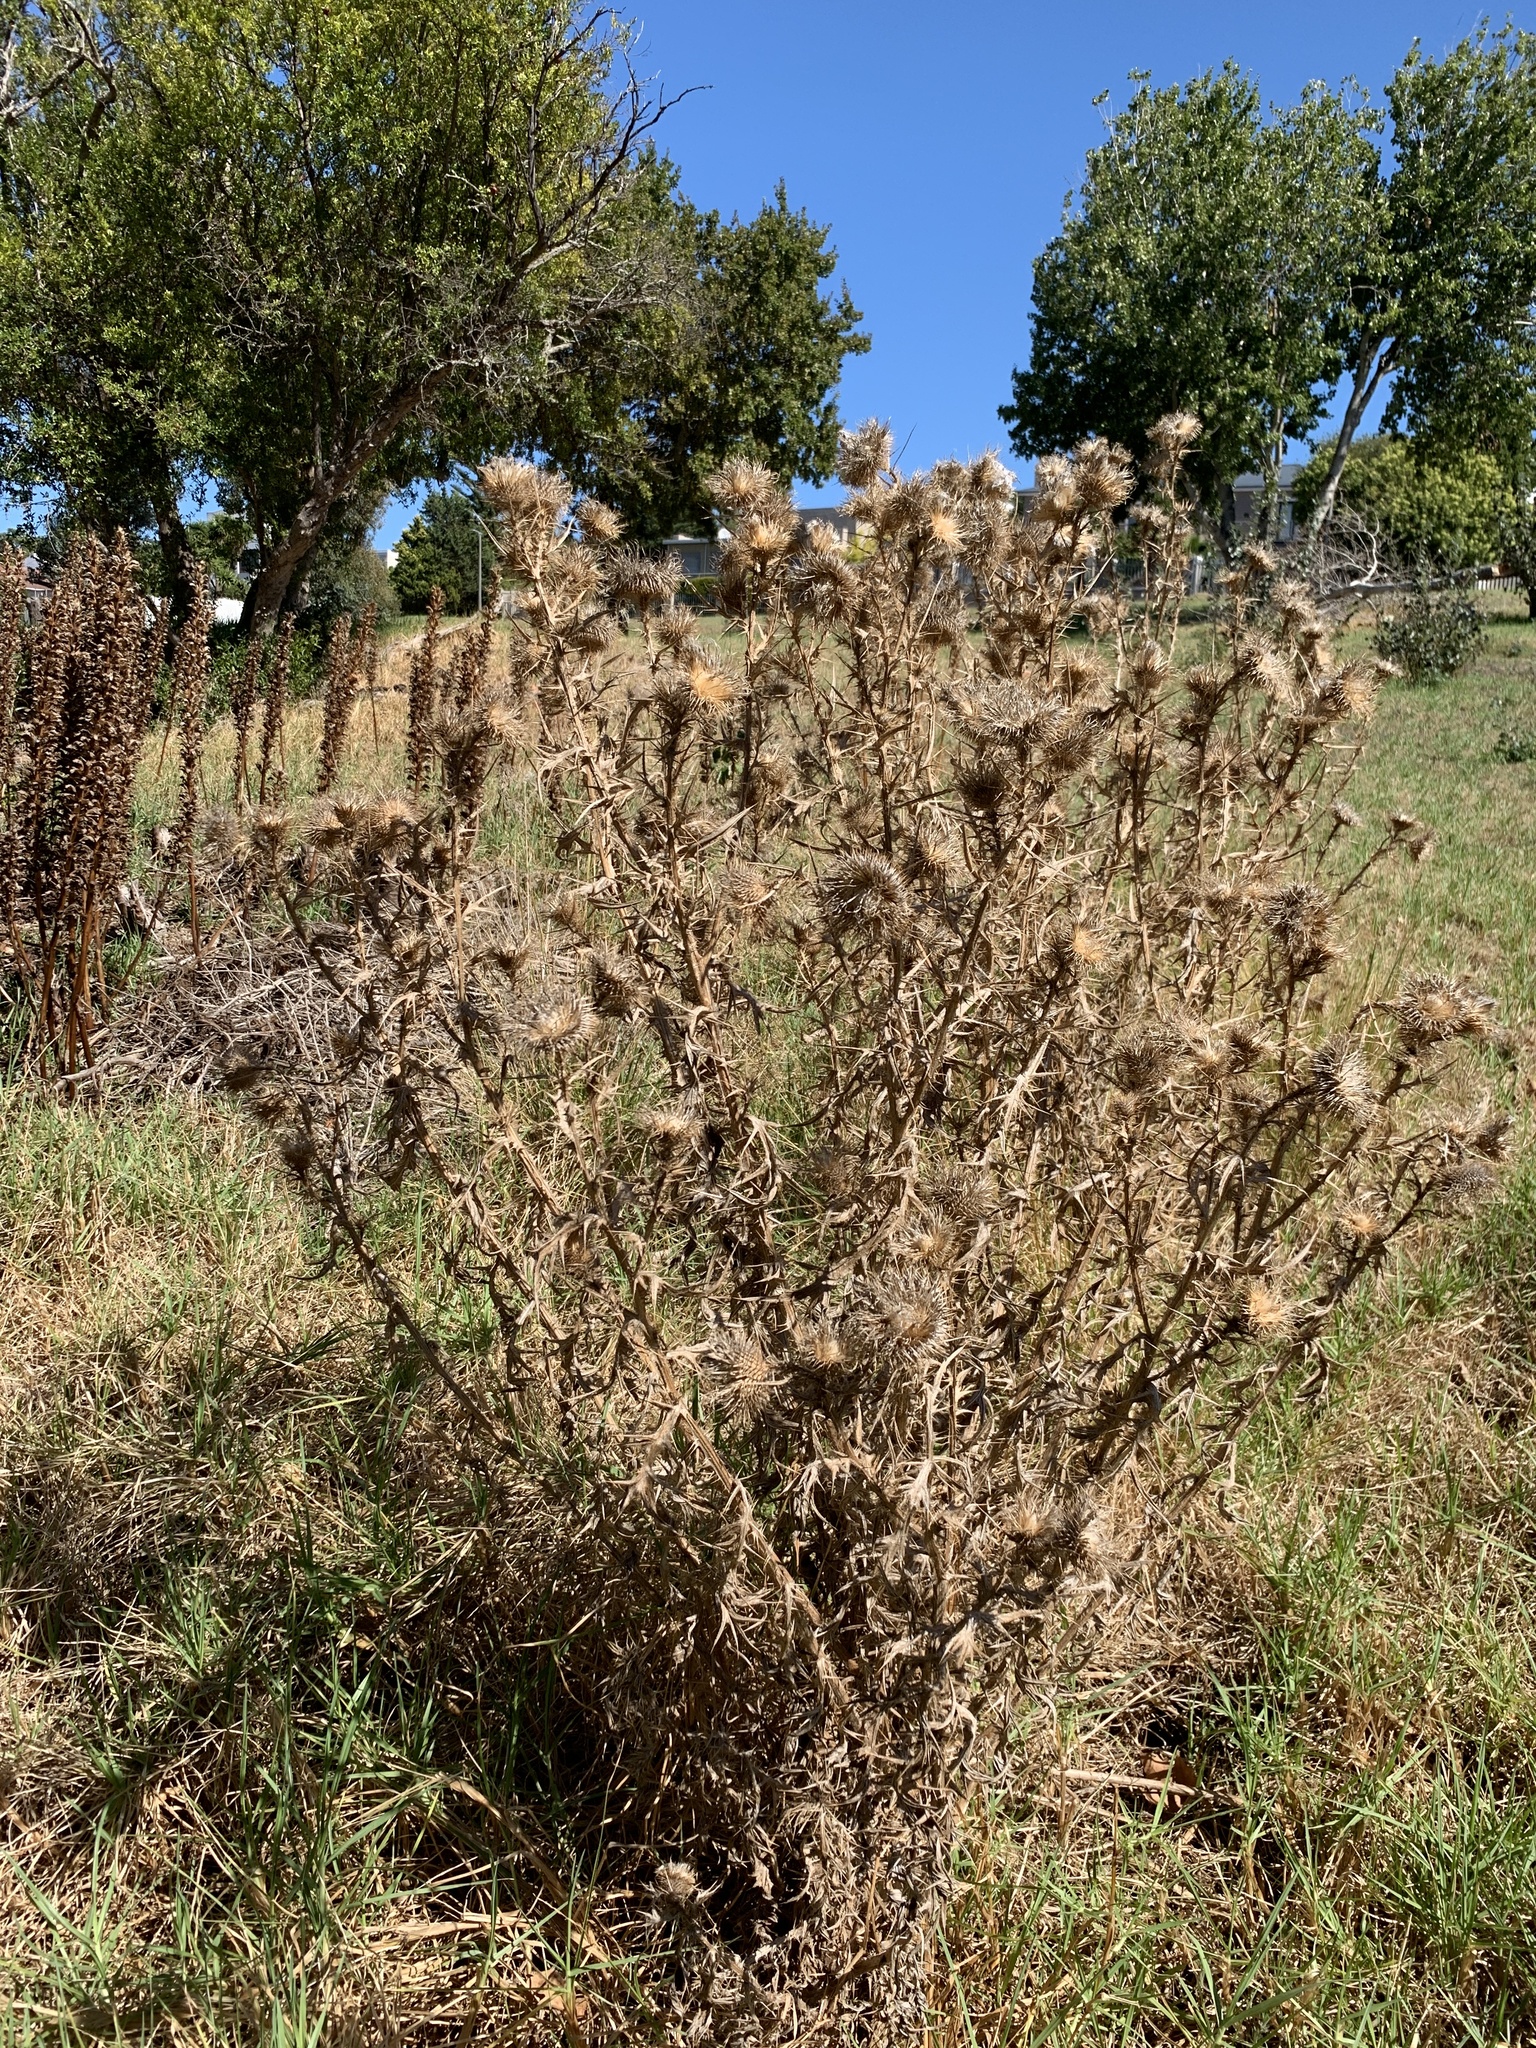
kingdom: Plantae
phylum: Tracheophyta
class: Magnoliopsida
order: Asterales
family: Asteraceae
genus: Cirsium
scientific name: Cirsium vulgare
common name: Bull thistle
